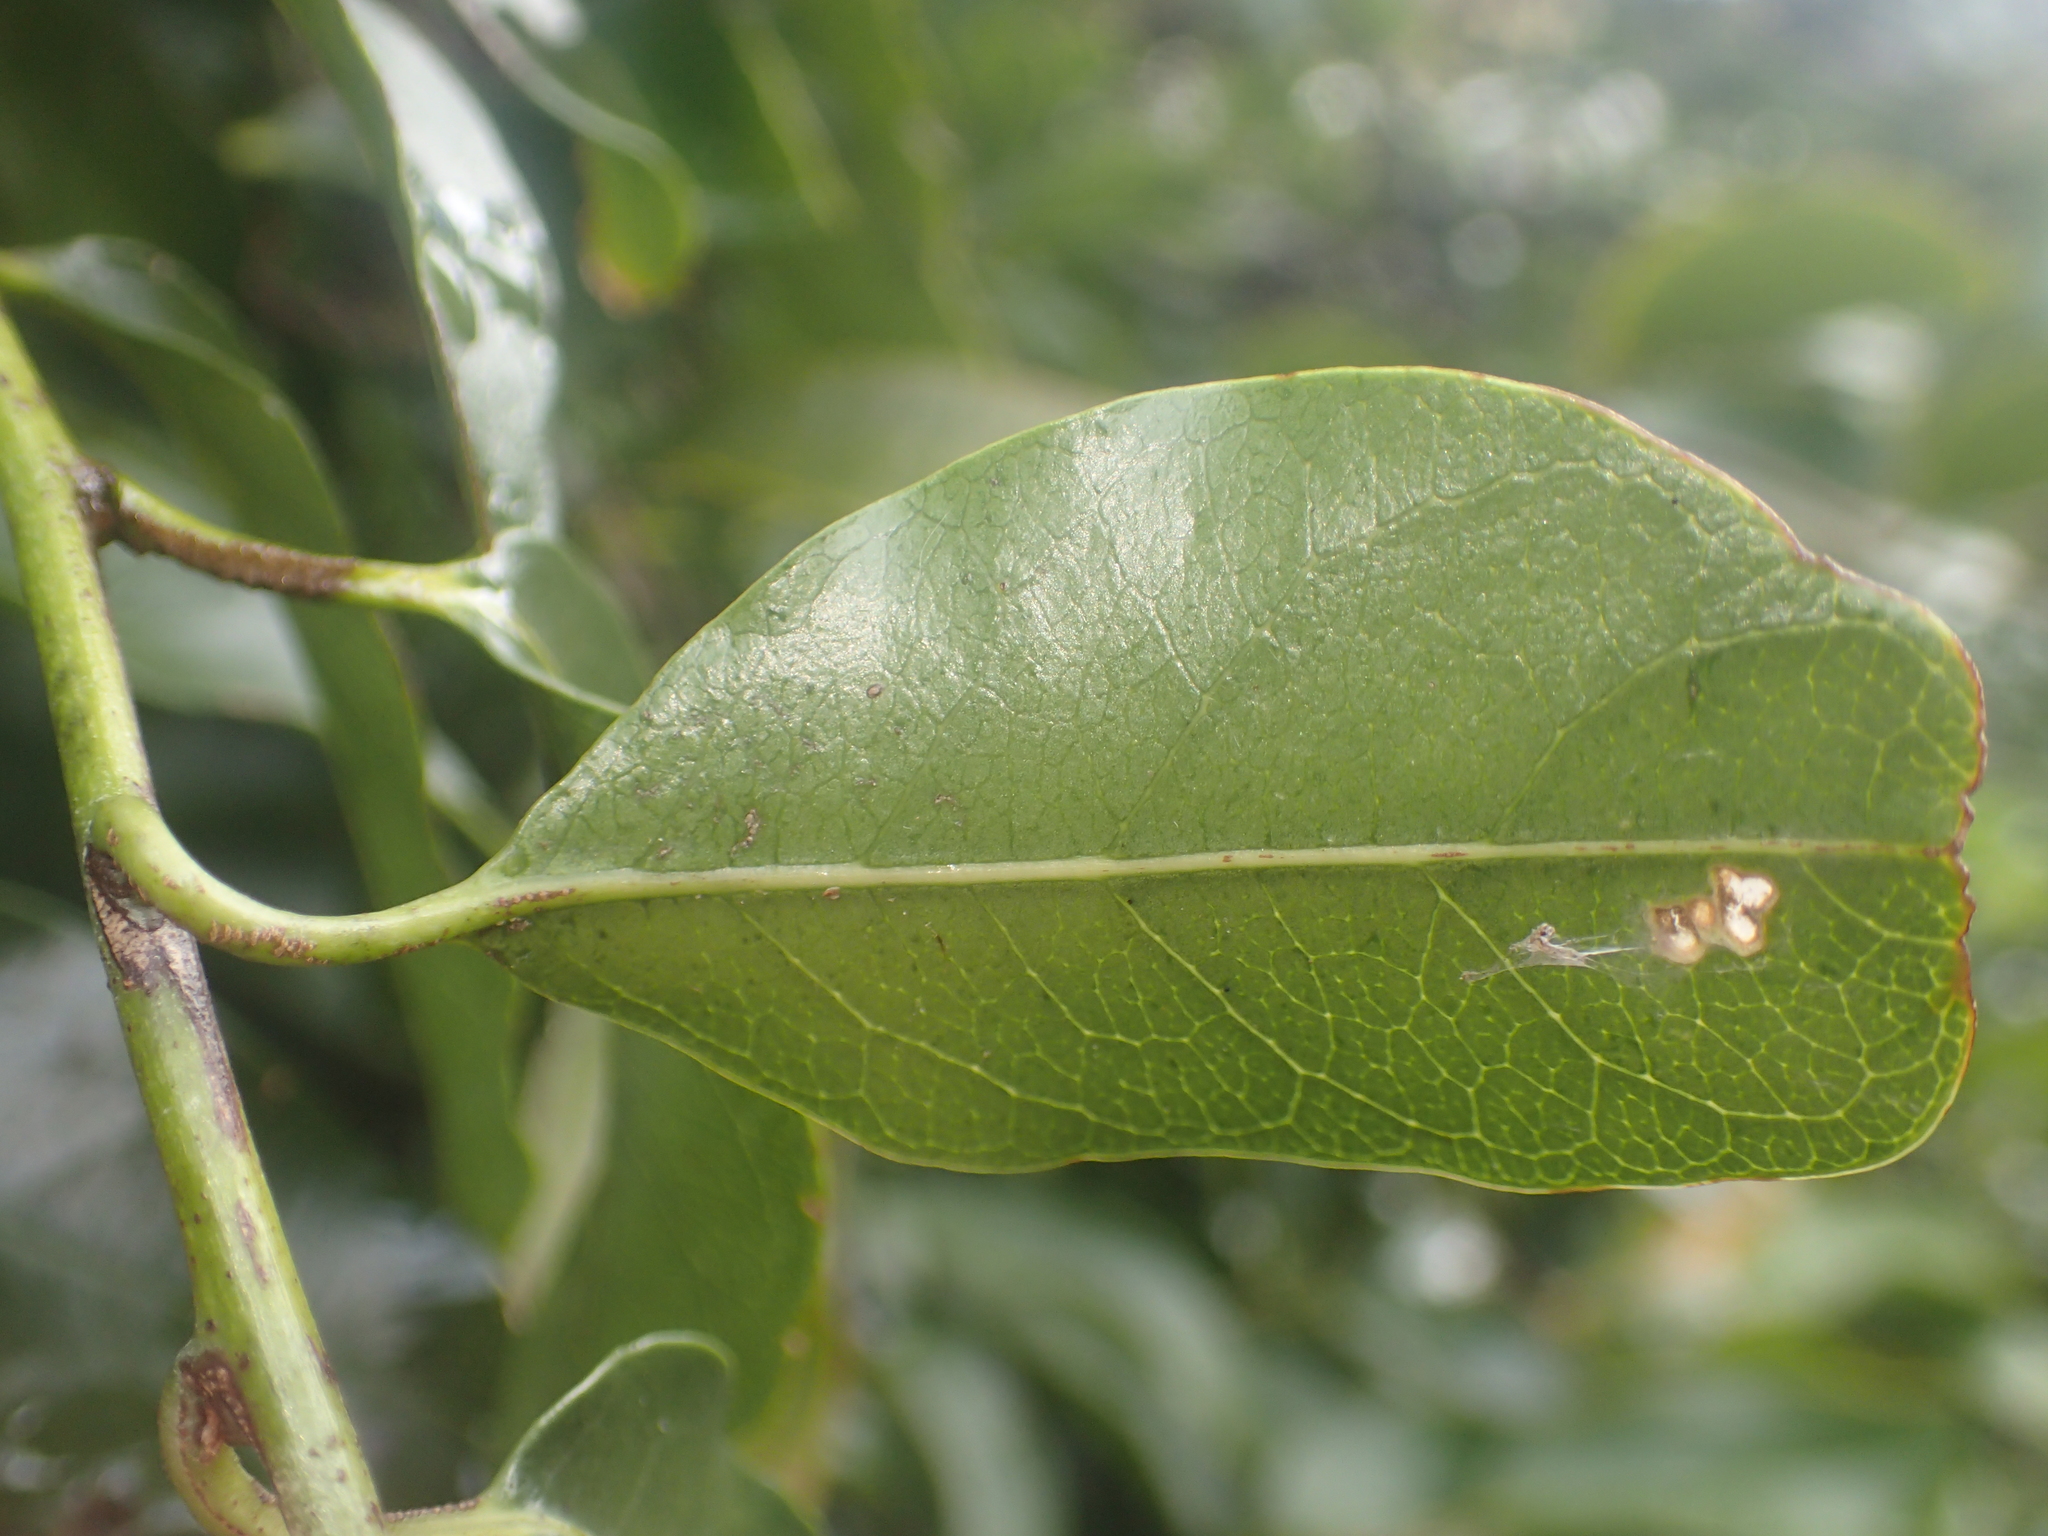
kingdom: Plantae
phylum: Tracheophyta
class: Magnoliopsida
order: Malpighiales
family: Passifloraceae
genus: Passiflora
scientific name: Passiflora tetrandra
